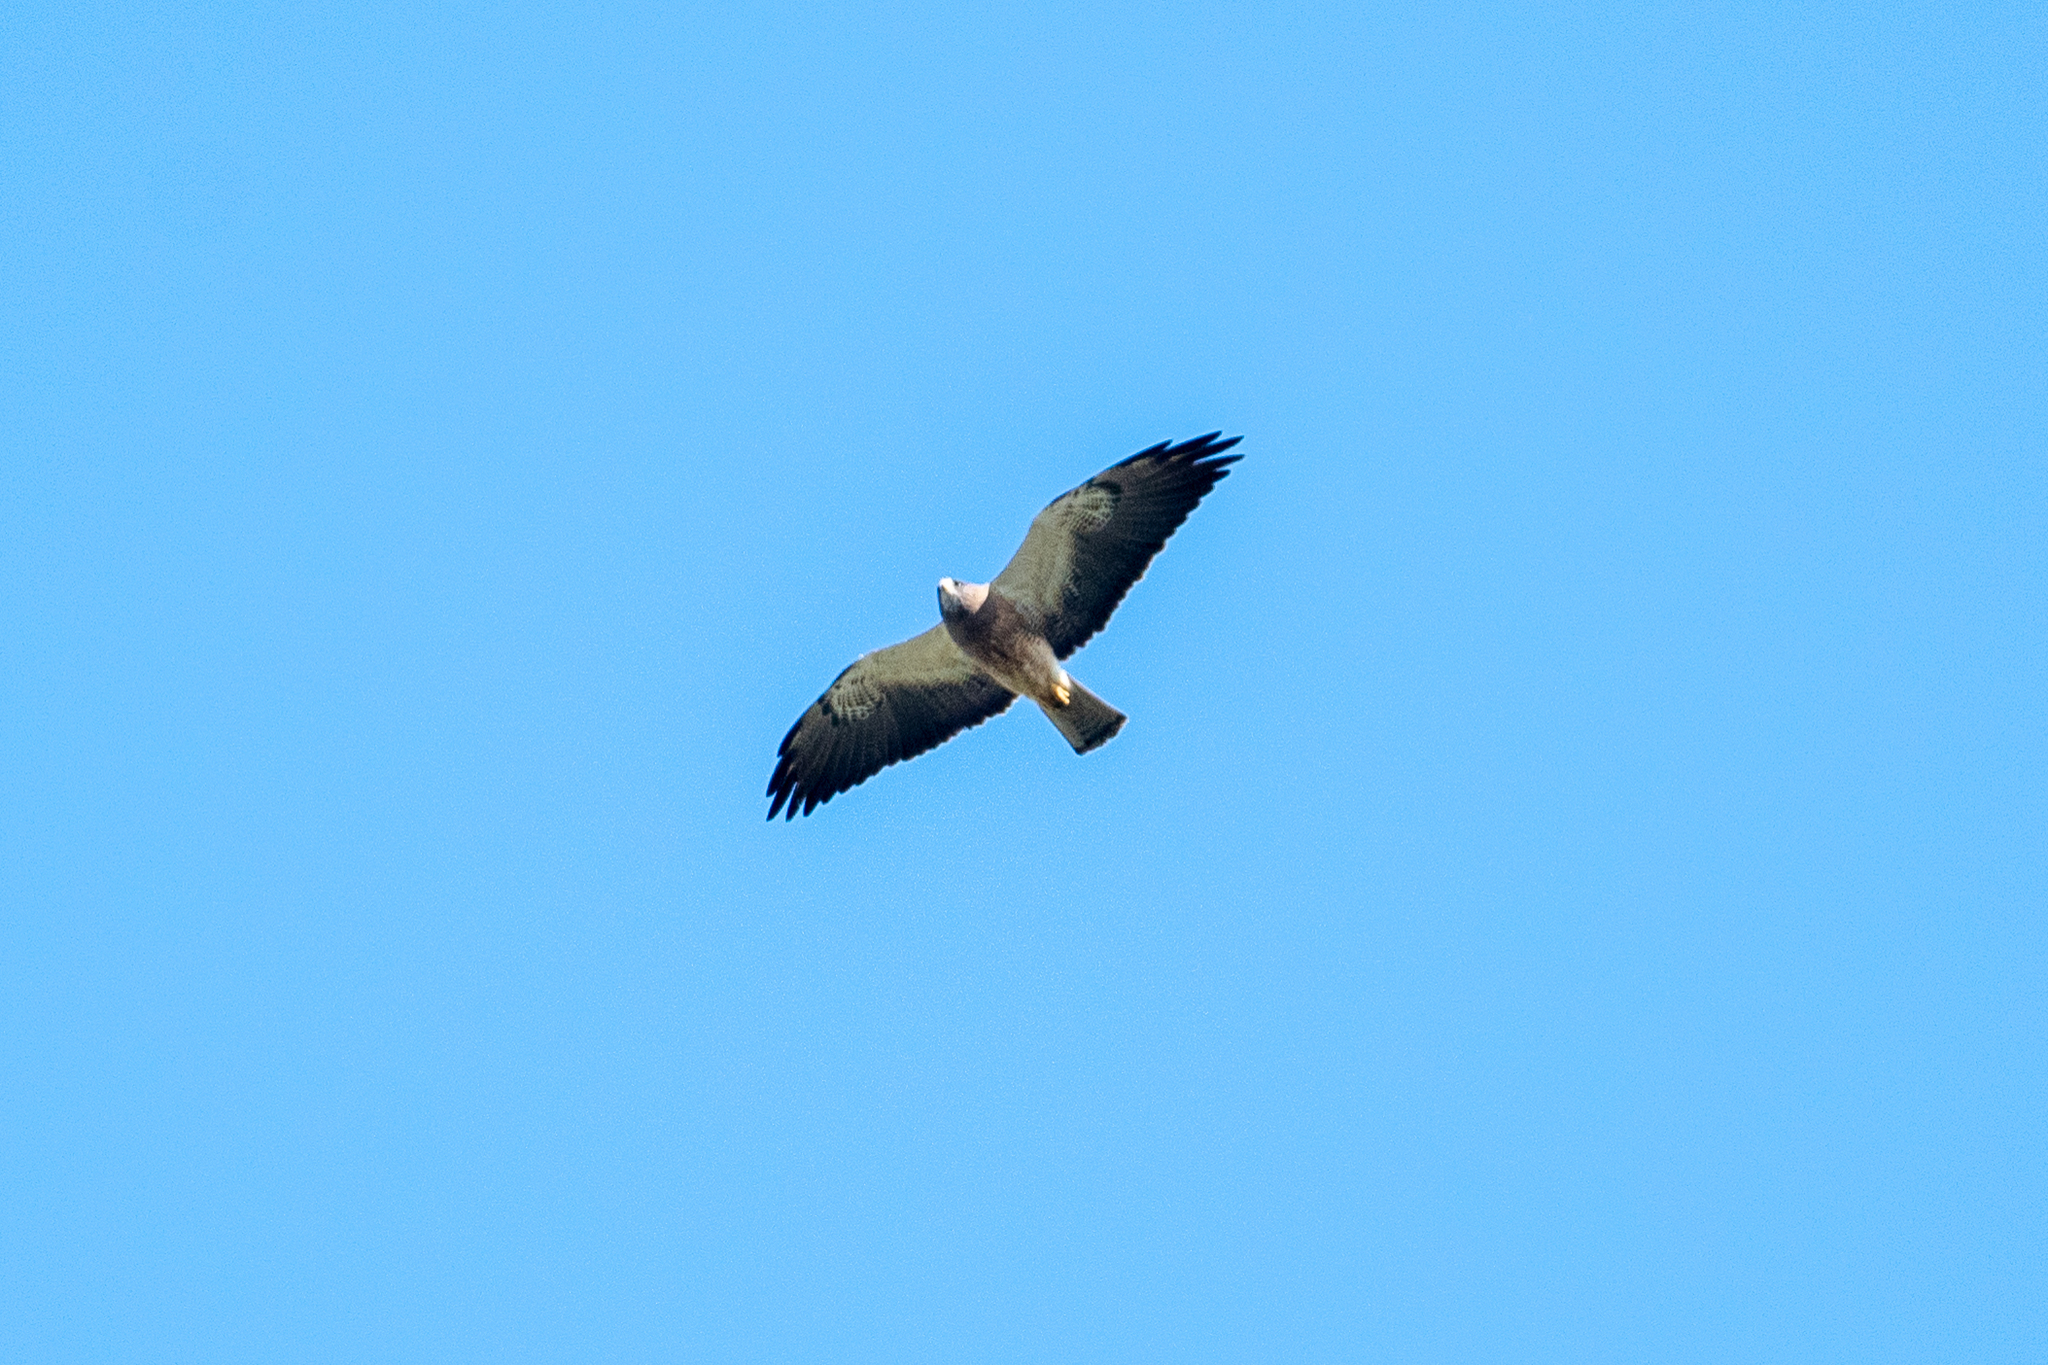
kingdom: Animalia
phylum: Chordata
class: Aves
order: Accipitriformes
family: Accipitridae
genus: Buteo
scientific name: Buteo swainsoni
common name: Swainson's hawk
